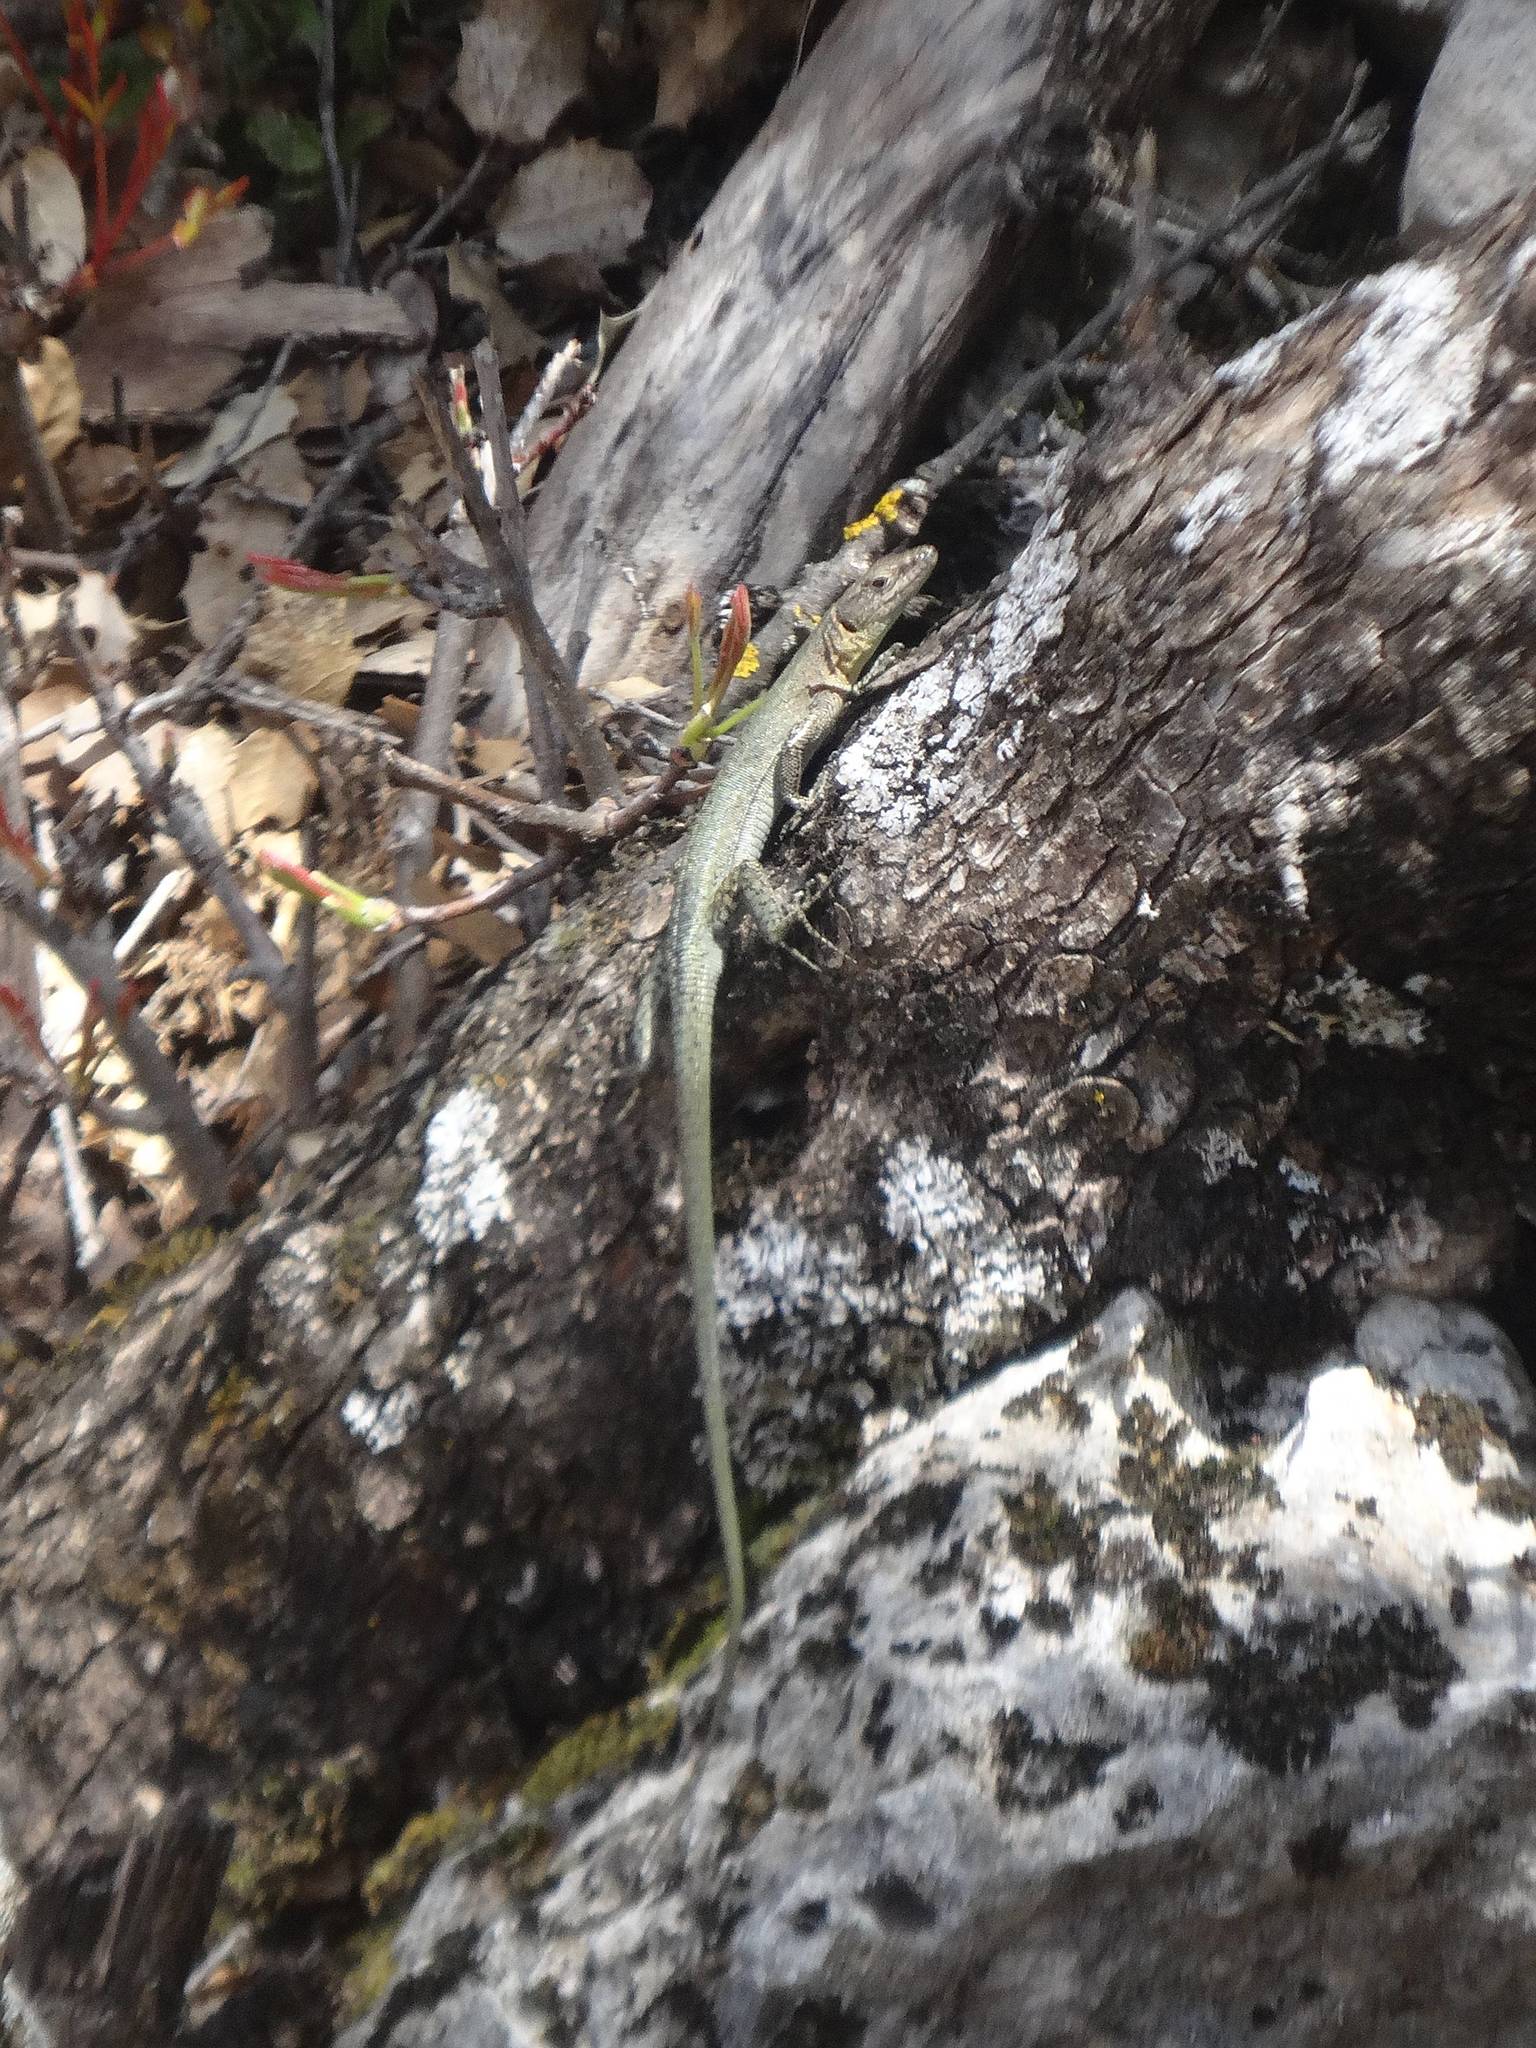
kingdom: Animalia
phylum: Chordata
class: Squamata
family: Lacertidae
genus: Anatololacerta
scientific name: Anatololacerta finikensis
